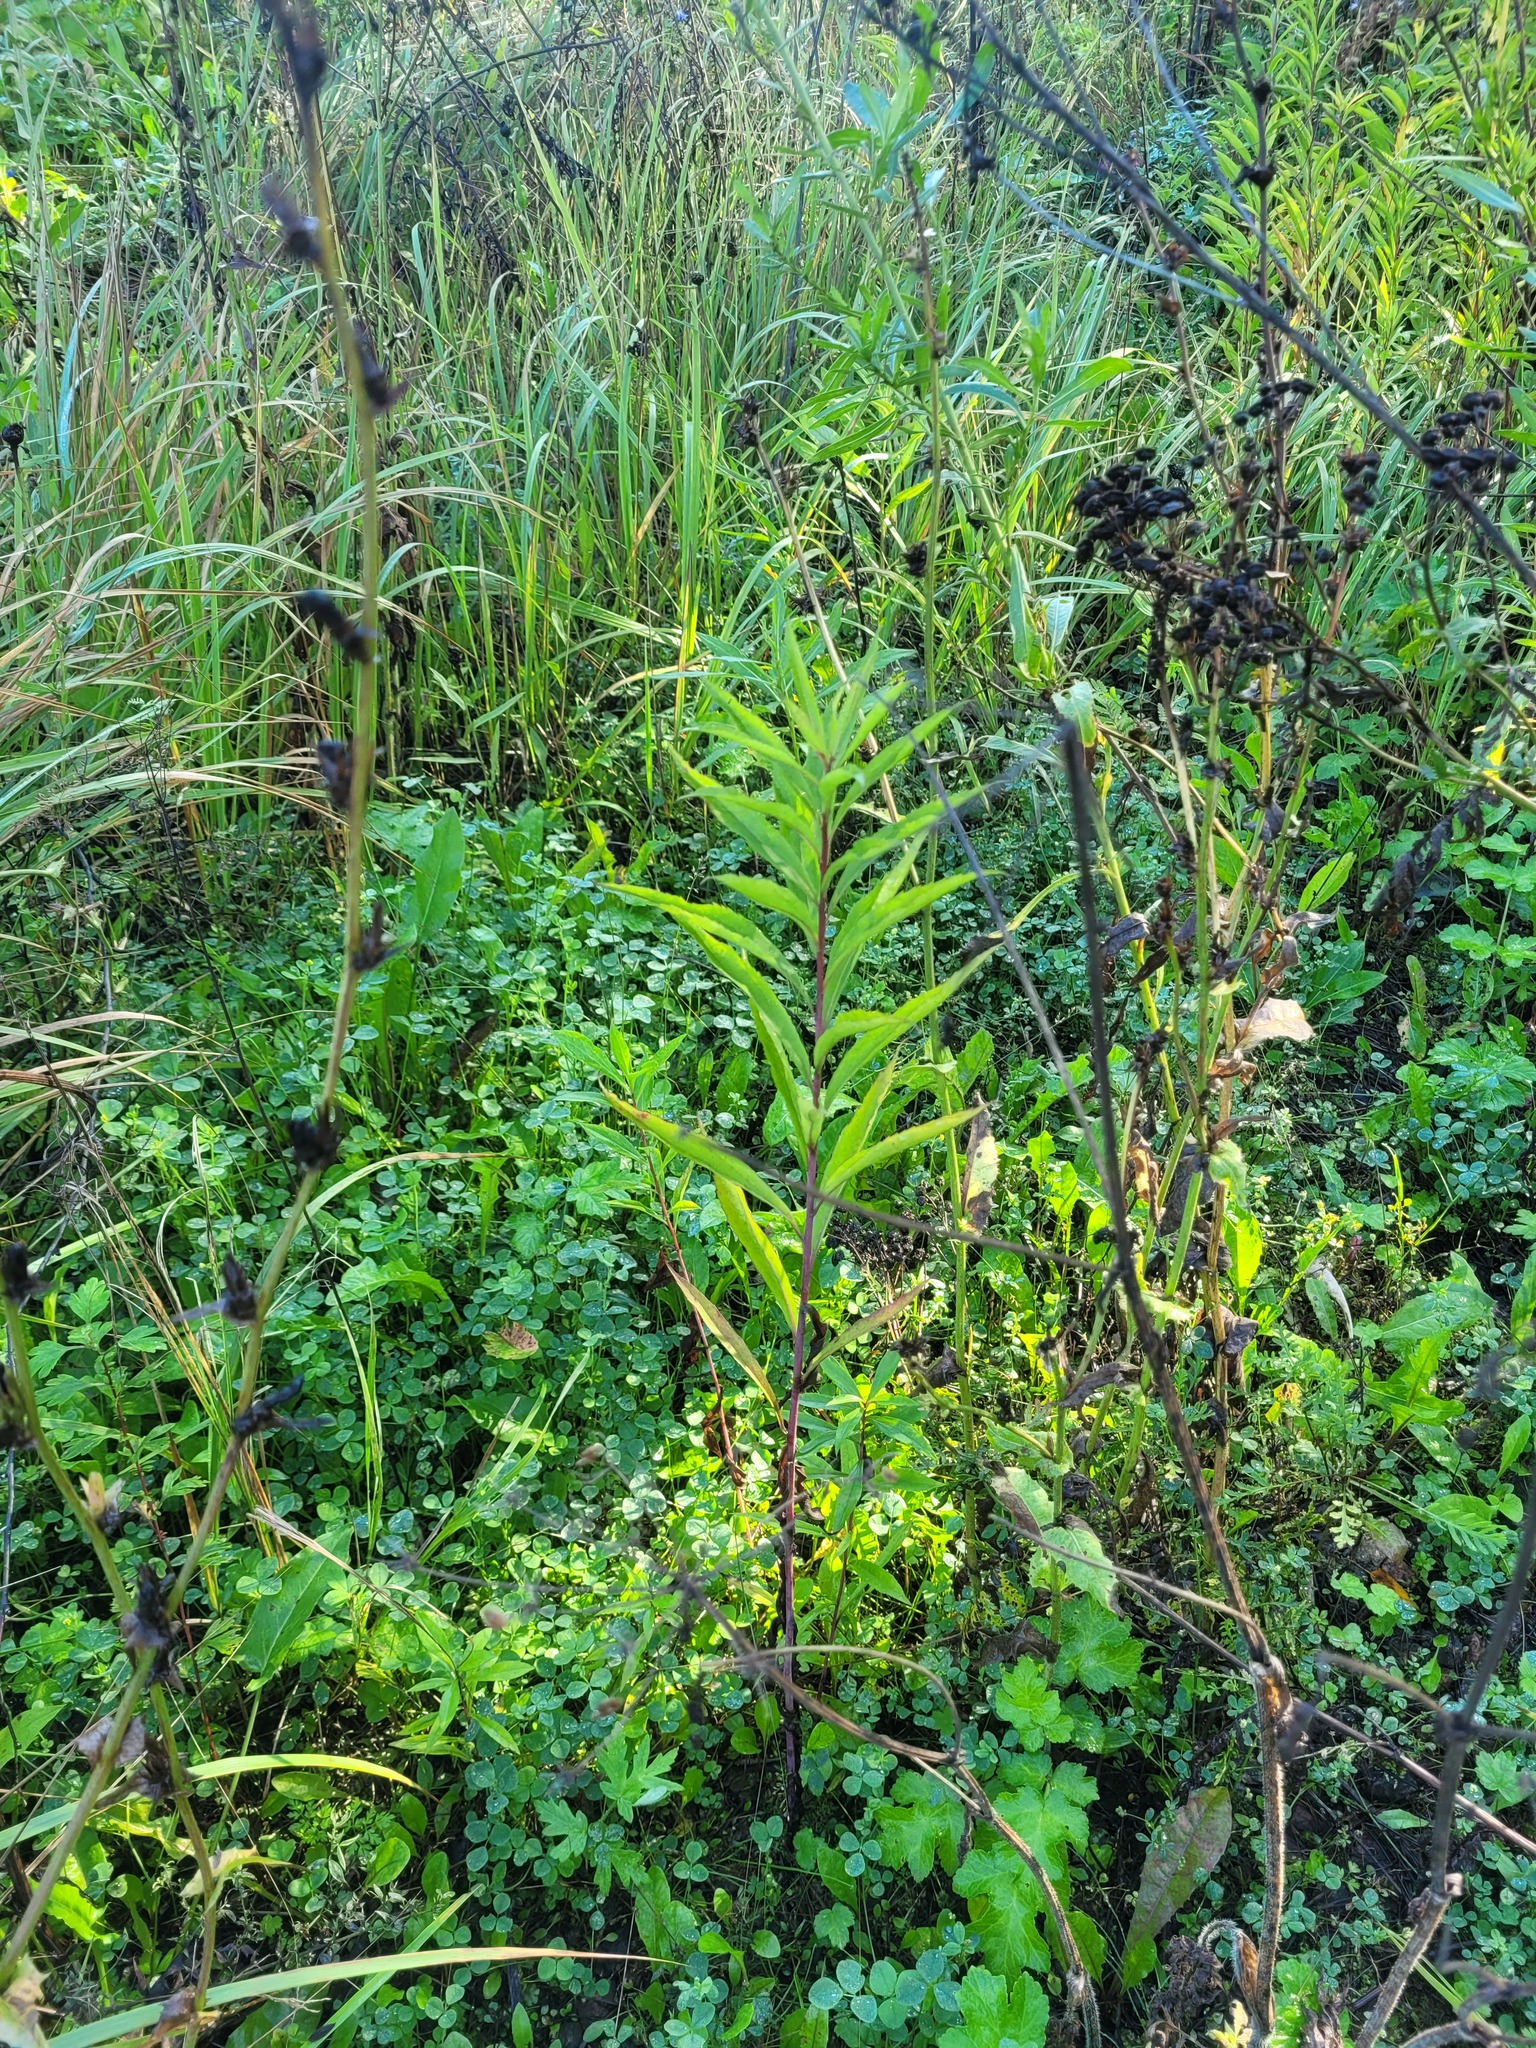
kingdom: Plantae
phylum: Tracheophyta
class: Magnoliopsida
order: Asterales
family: Asteraceae
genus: Solidago
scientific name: Solidago gigantea
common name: Giant goldenrod
